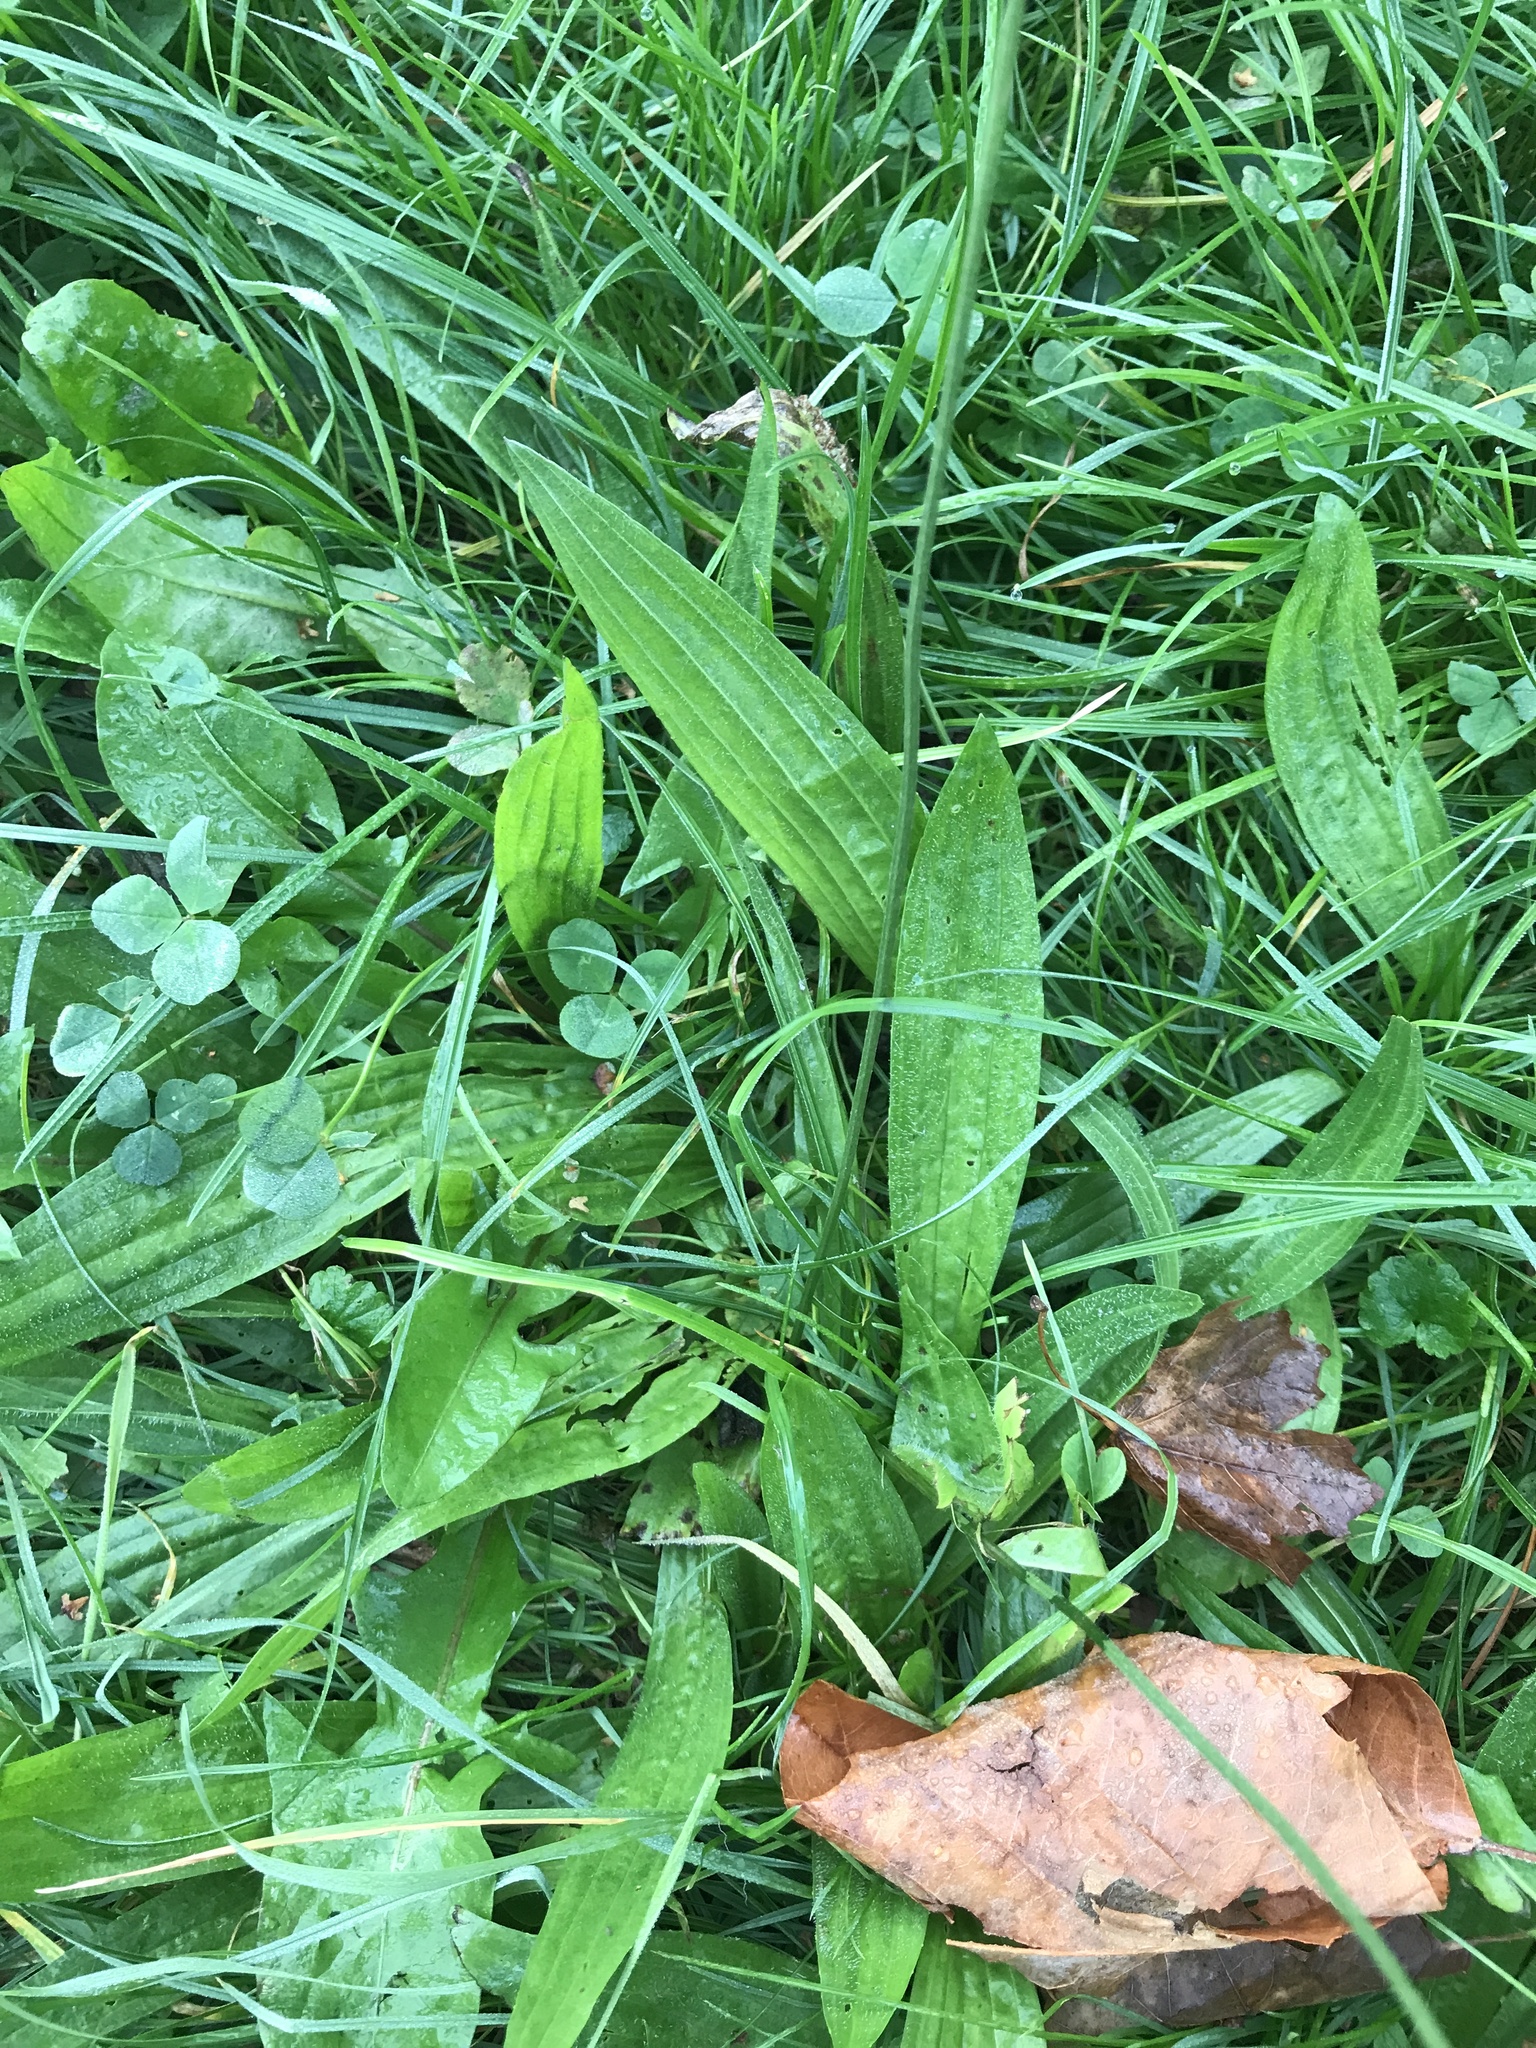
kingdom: Plantae
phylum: Tracheophyta
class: Magnoliopsida
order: Lamiales
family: Plantaginaceae
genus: Plantago
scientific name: Plantago lanceolata
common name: Ribwort plantain
